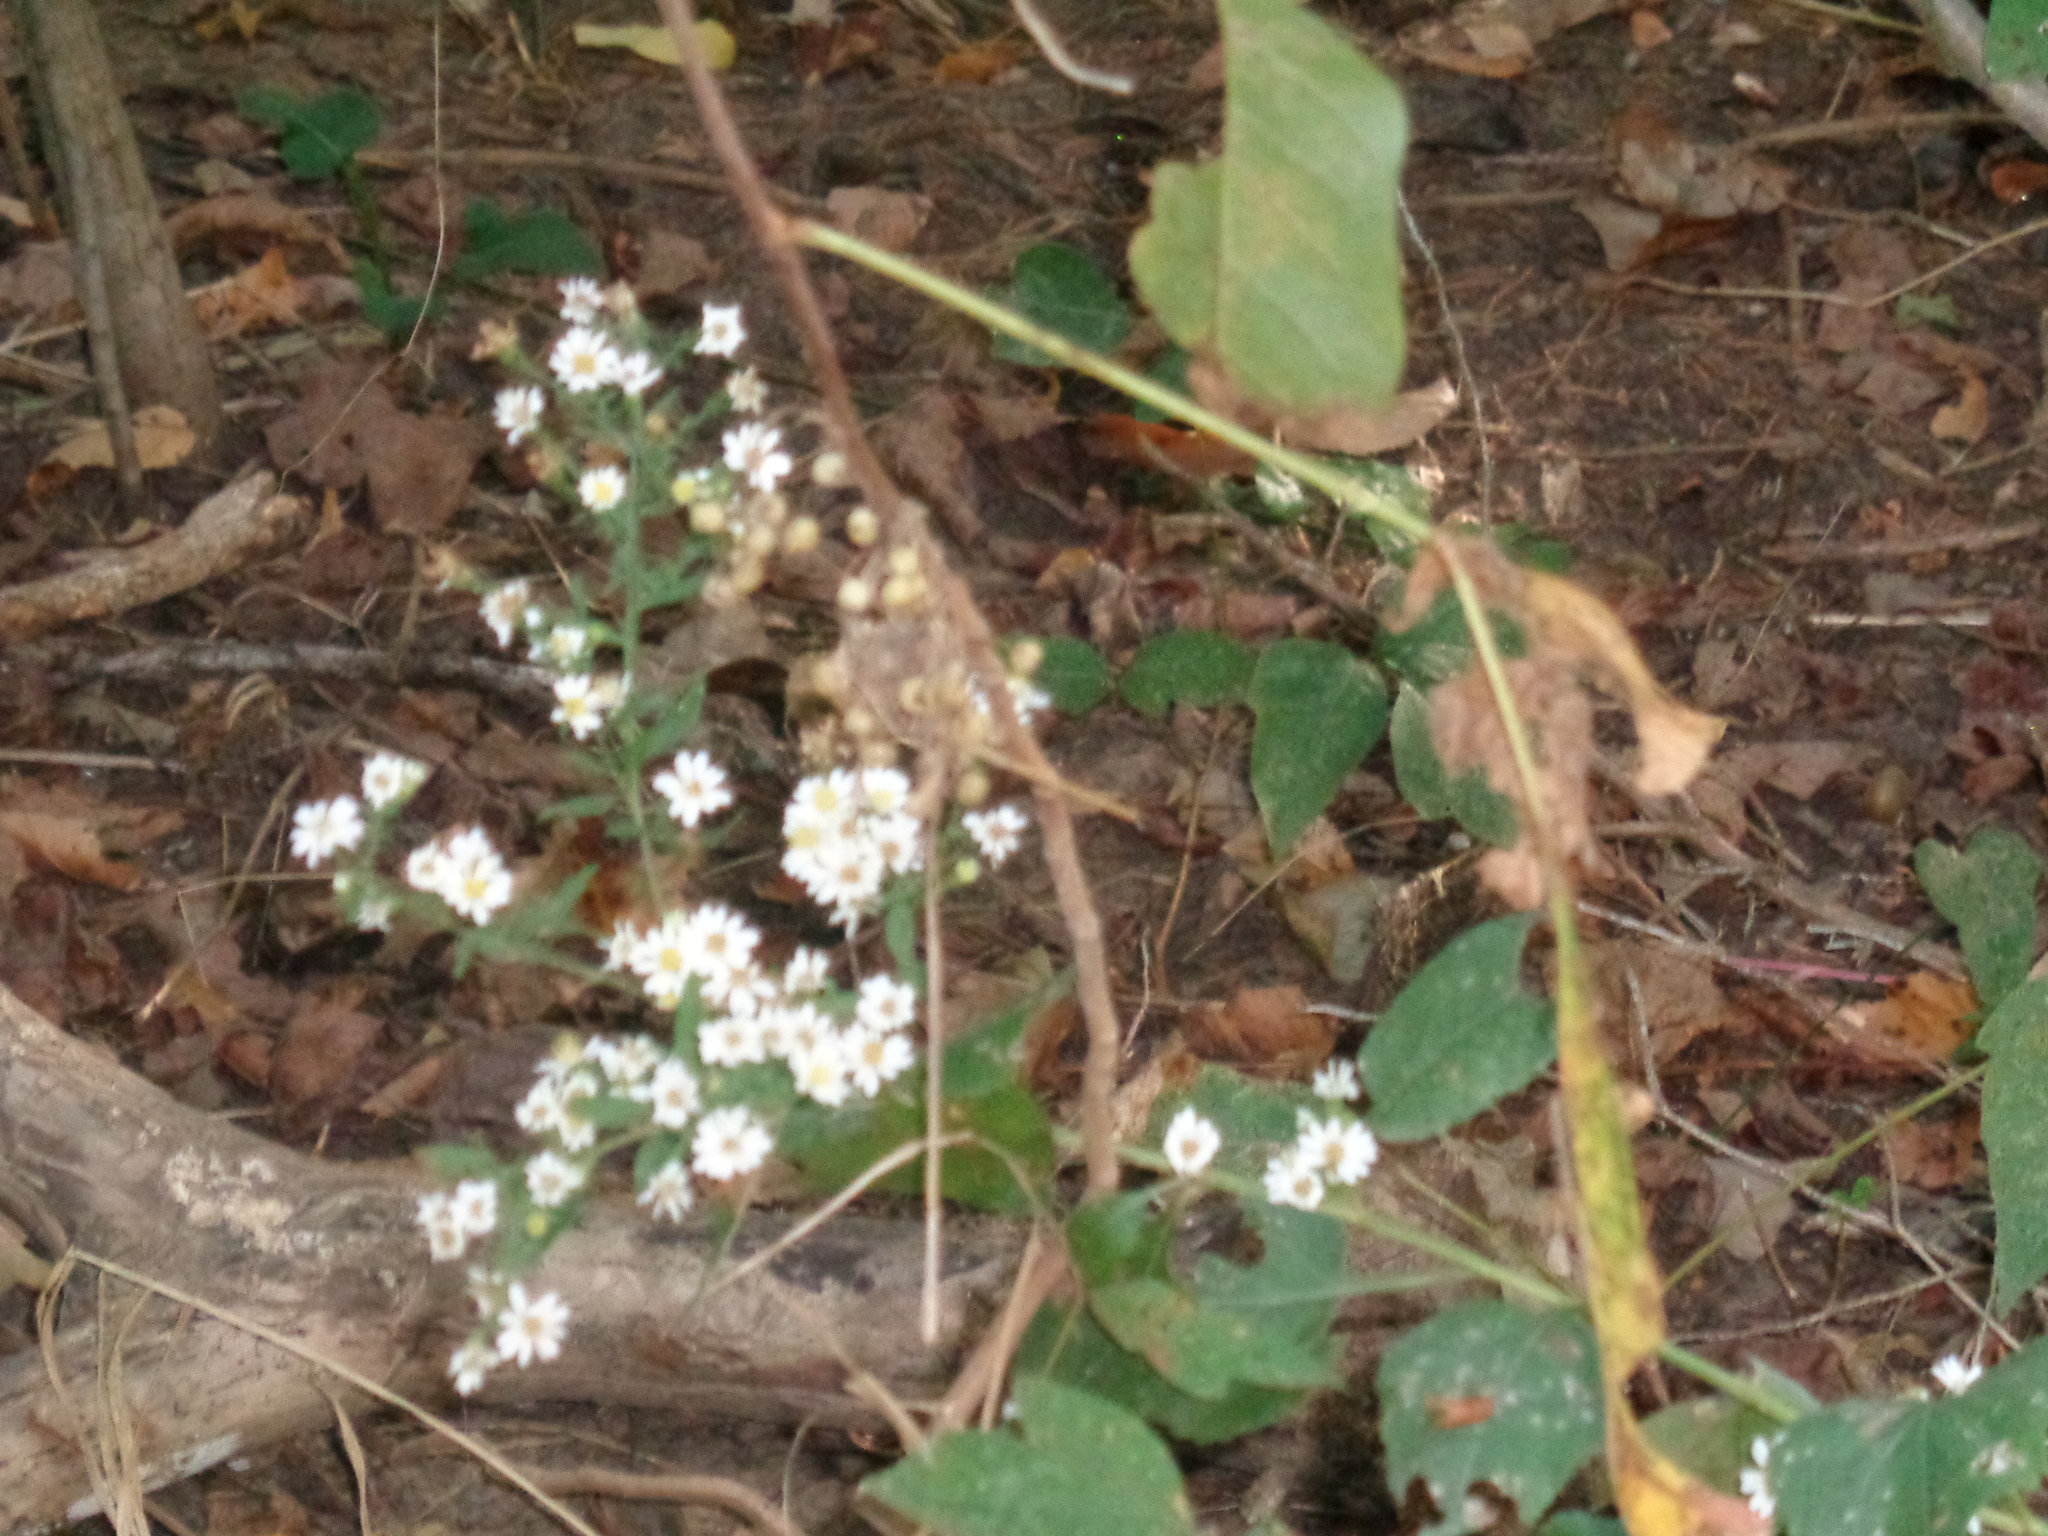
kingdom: Plantae
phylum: Tracheophyta
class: Magnoliopsida
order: Asterales
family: Asteraceae
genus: Symphyotrichum
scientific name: Symphyotrichum drummondii
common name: Drummond's aster
